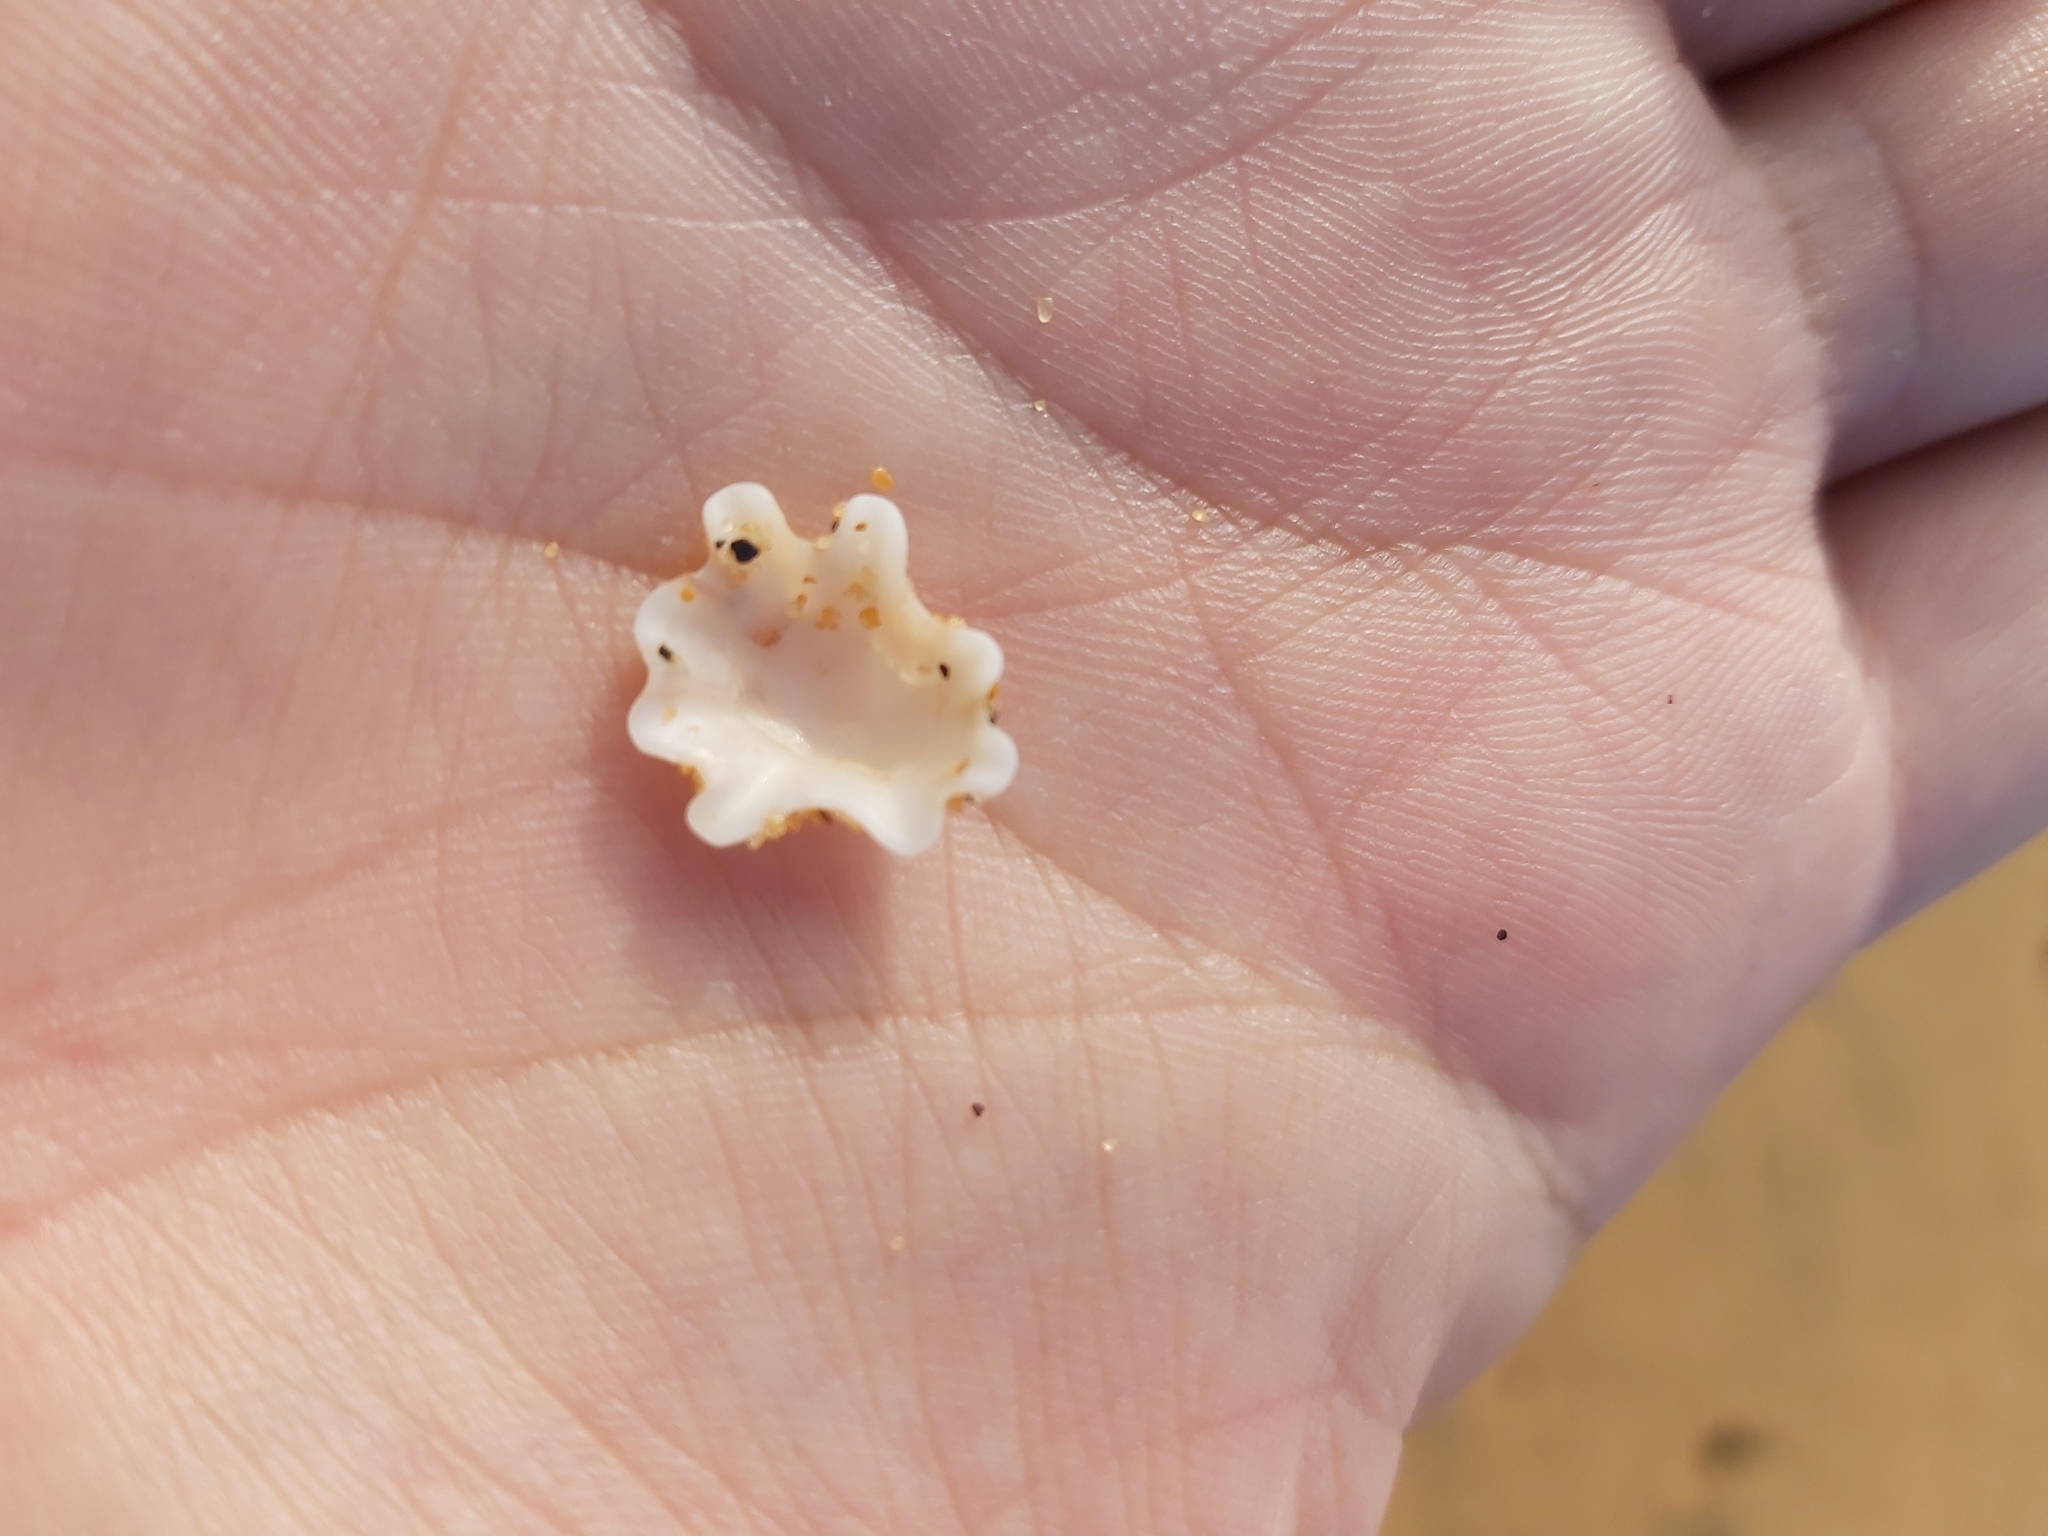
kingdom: Animalia
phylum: Mollusca
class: Gastropoda
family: Patellidae
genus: Scutellastra
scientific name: Scutellastra chapmani
